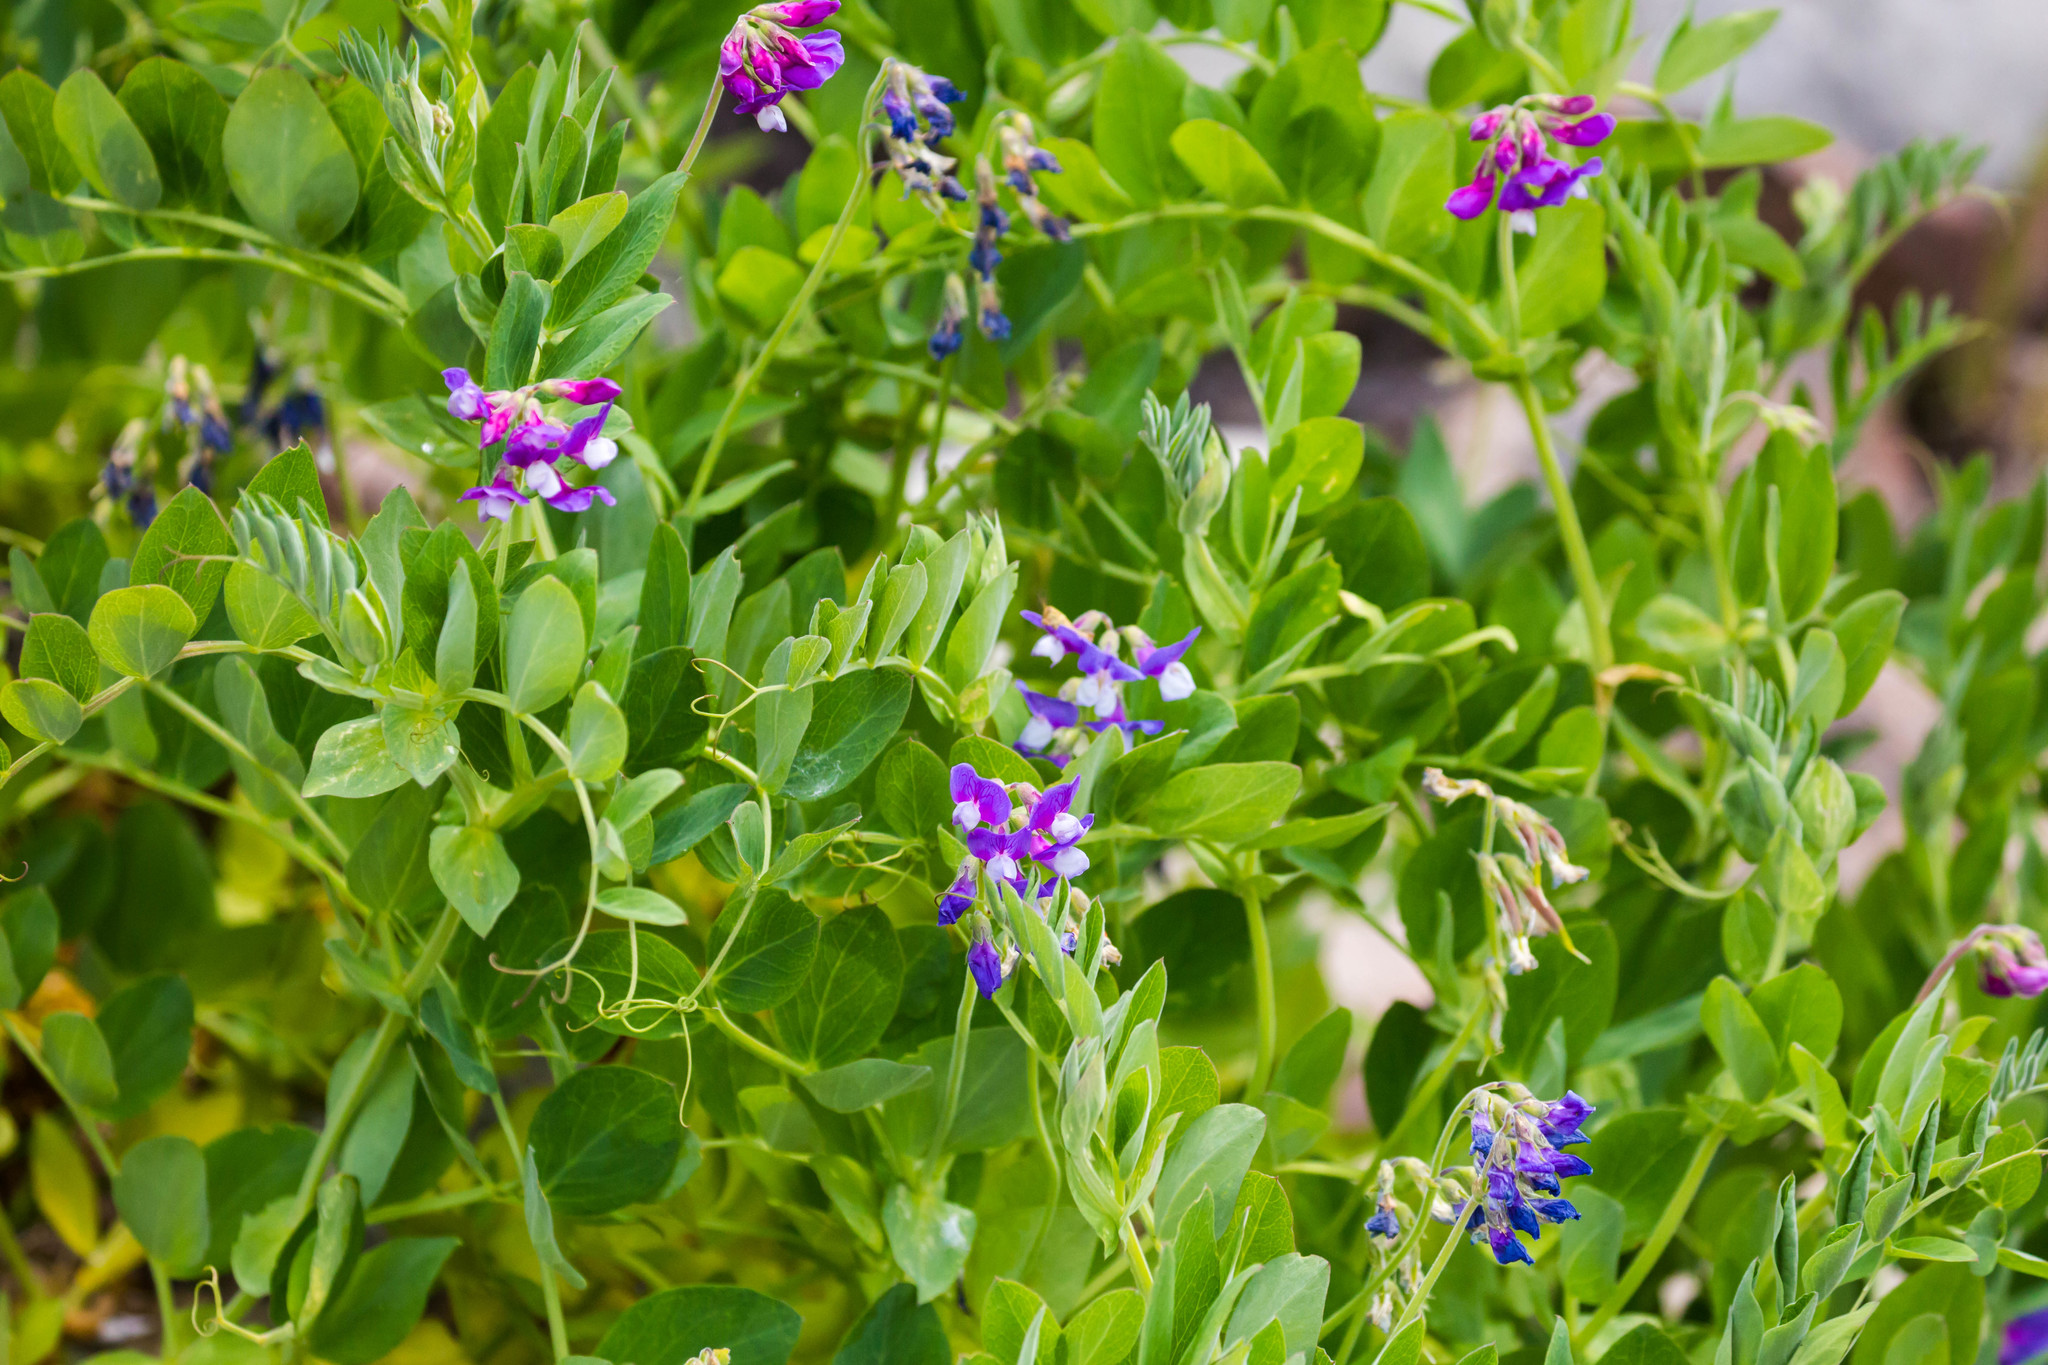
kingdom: Plantae
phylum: Tracheophyta
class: Magnoliopsida
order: Fabales
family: Fabaceae
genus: Lathyrus
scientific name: Lathyrus japonicus
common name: Sea pea
